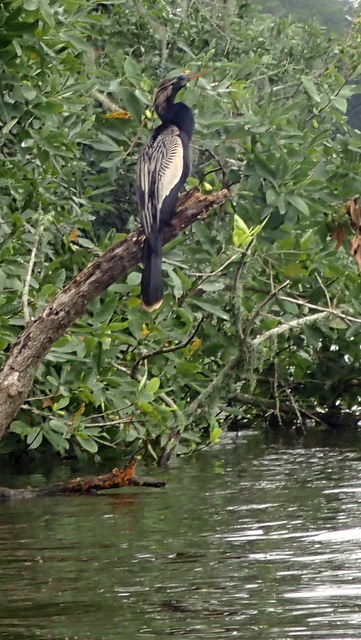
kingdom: Animalia
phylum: Chordata
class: Aves
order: Suliformes
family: Anhingidae
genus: Anhinga
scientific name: Anhinga anhinga
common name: Anhinga
